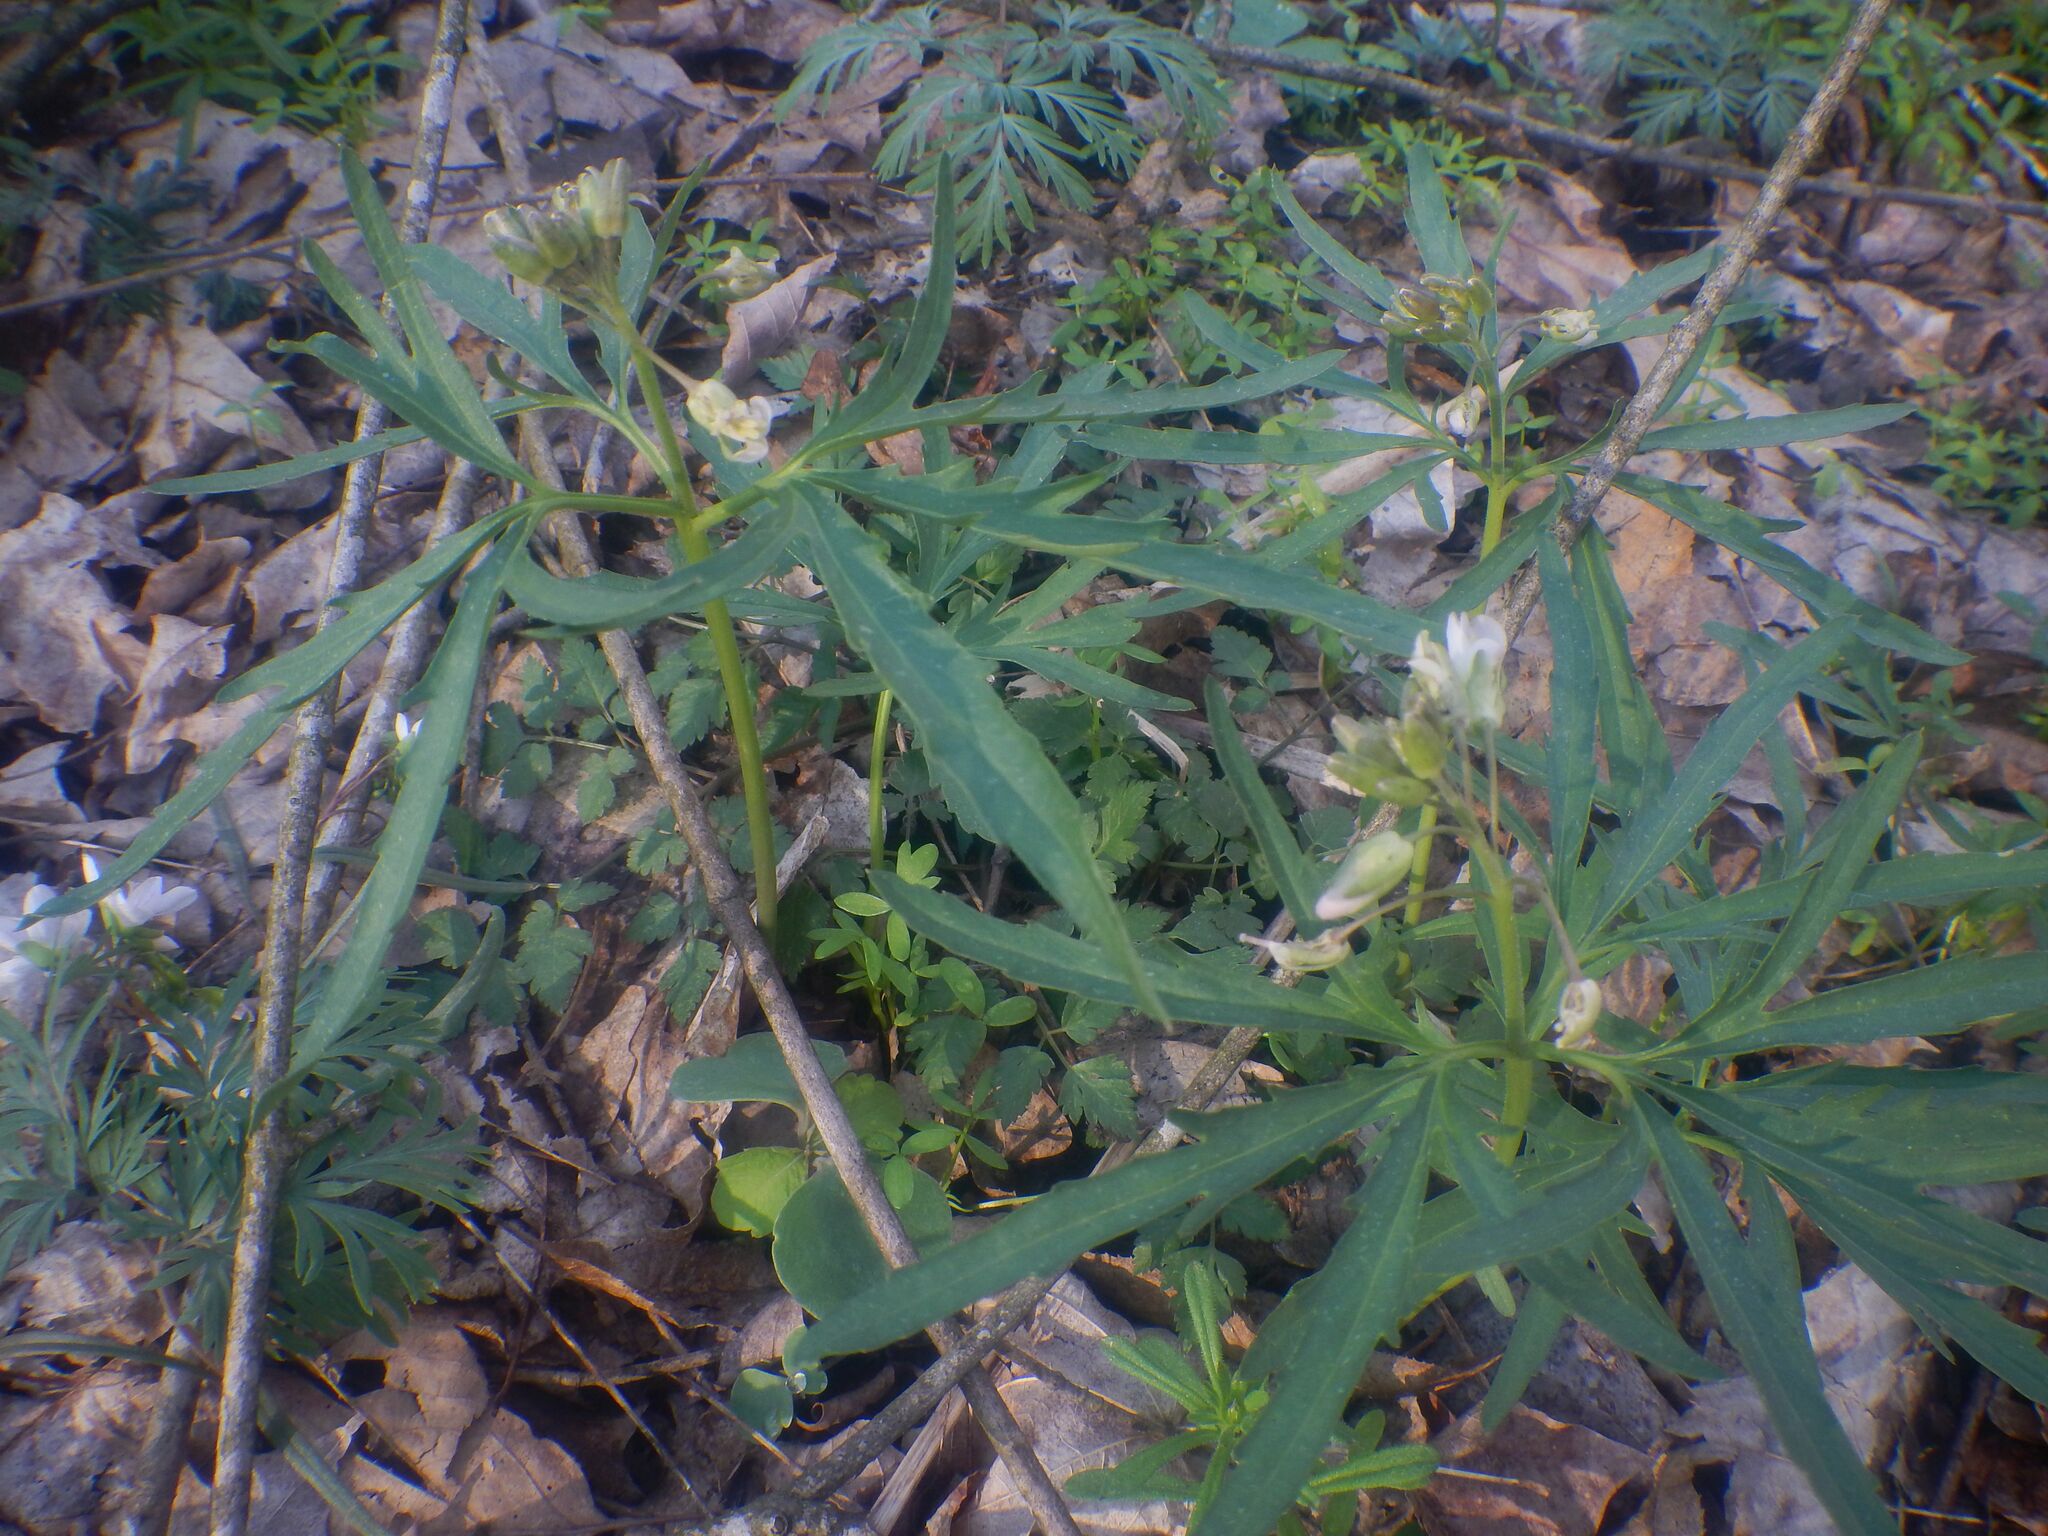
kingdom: Plantae
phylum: Tracheophyta
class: Magnoliopsida
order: Brassicales
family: Brassicaceae
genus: Cardamine
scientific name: Cardamine concatenata
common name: Cut-leaf toothcup
